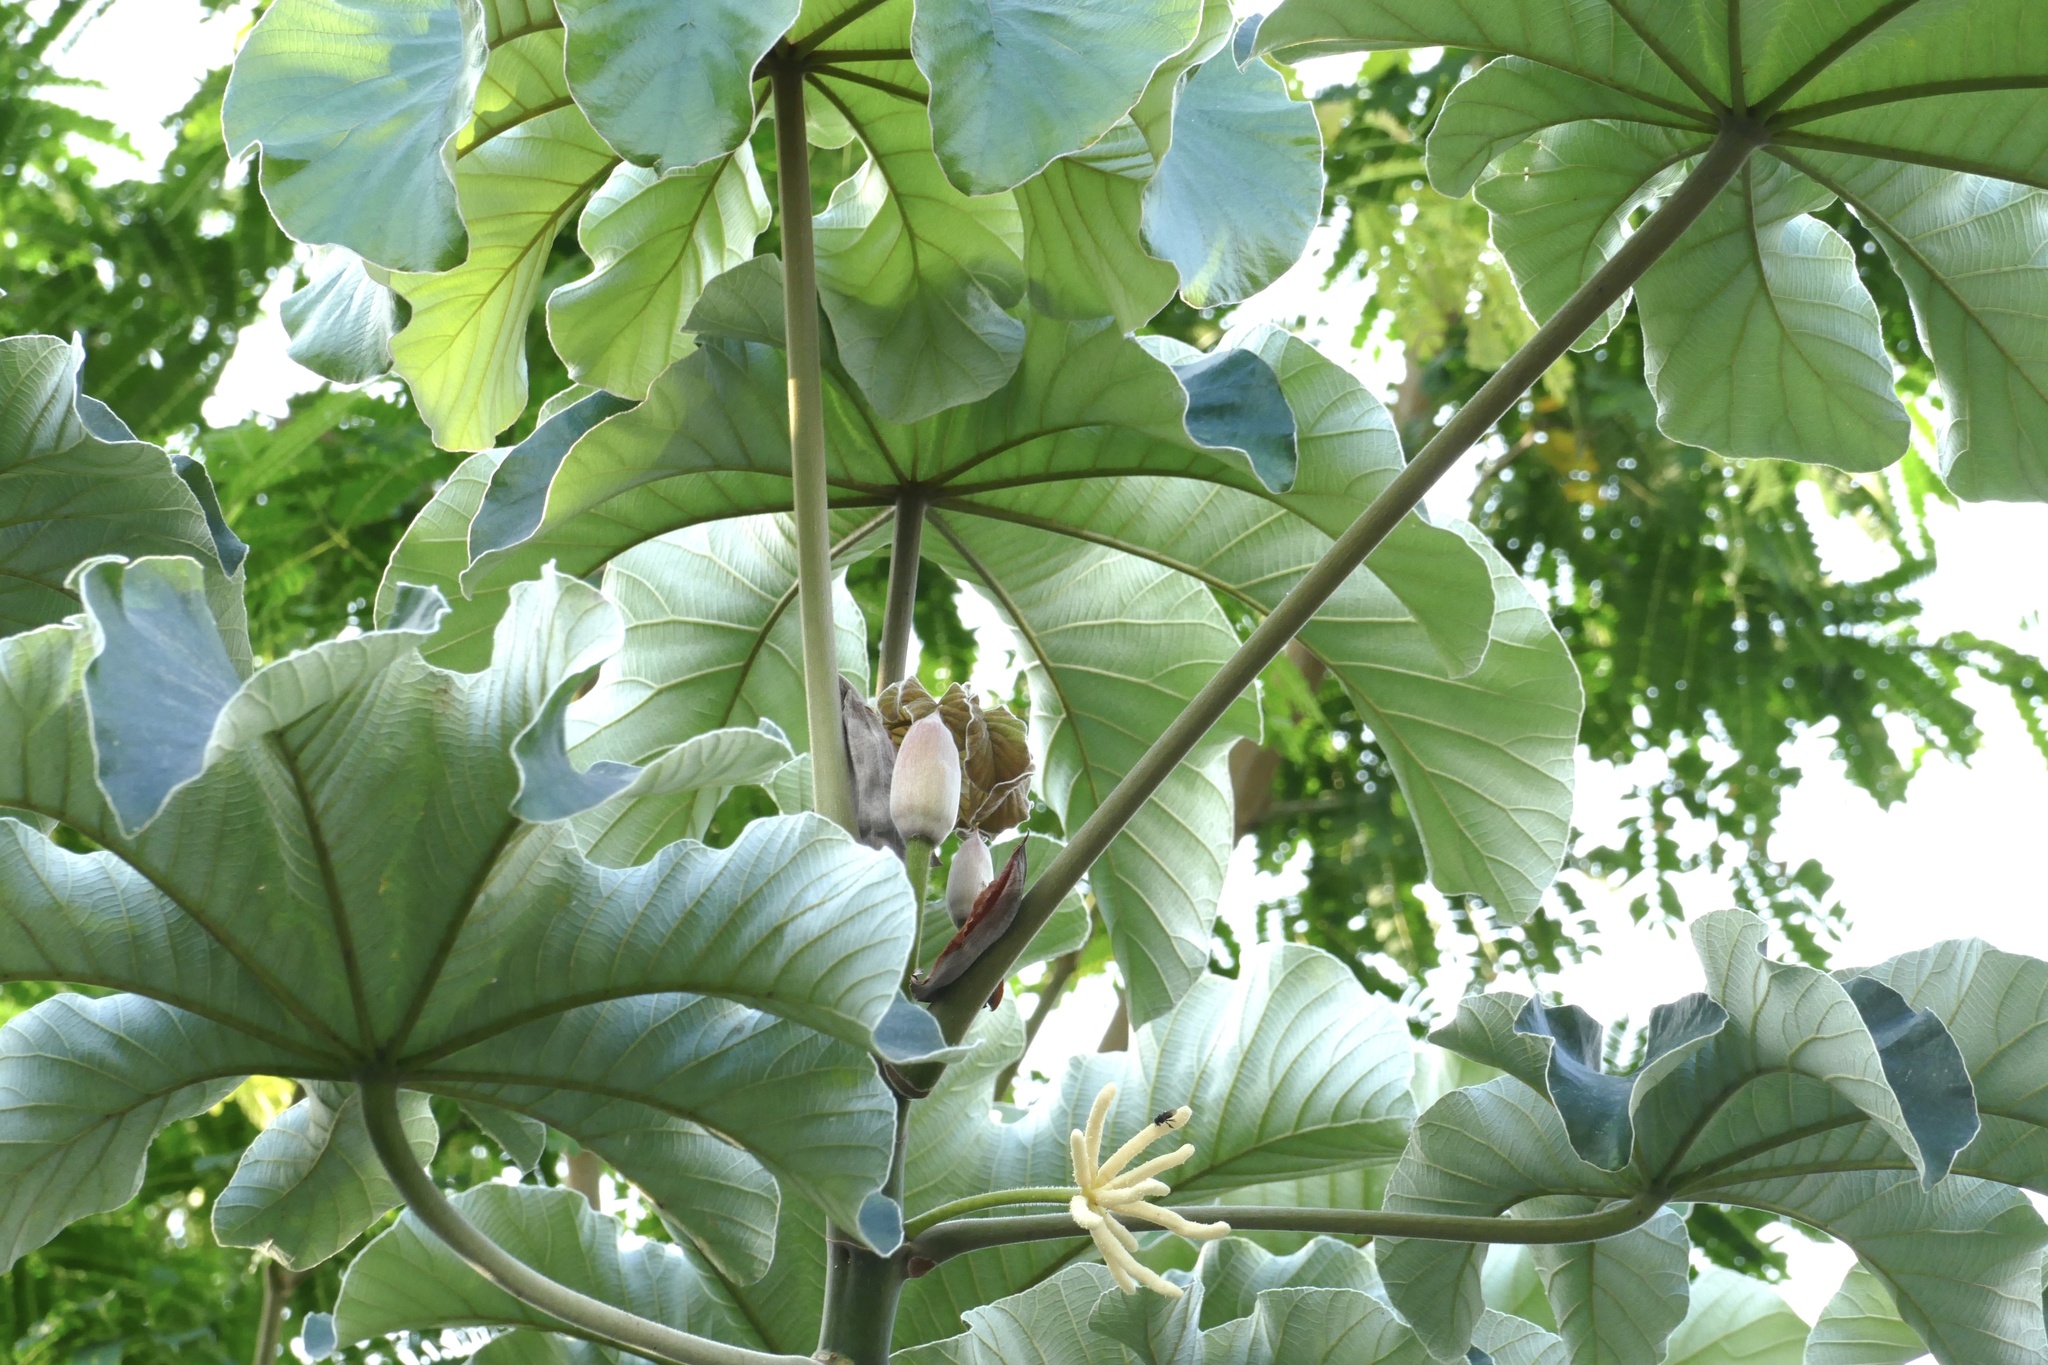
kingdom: Plantae
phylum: Tracheophyta
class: Magnoliopsida
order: Rosales
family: Urticaceae
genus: Cecropia
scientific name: Cecropia peltata
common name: Trumpet-tree
